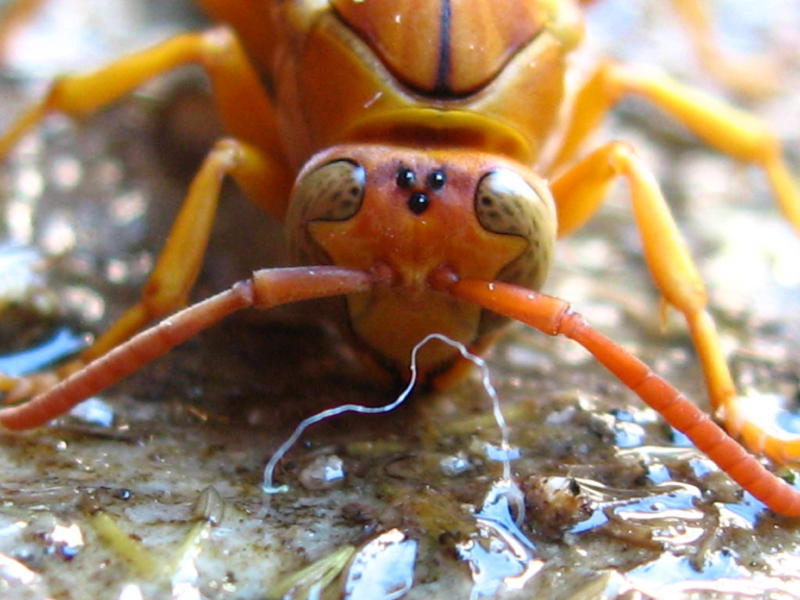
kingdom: Animalia
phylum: Arthropoda
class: Insecta
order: Hymenoptera
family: Eumenidae
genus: Polistes
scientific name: Polistes flavus
